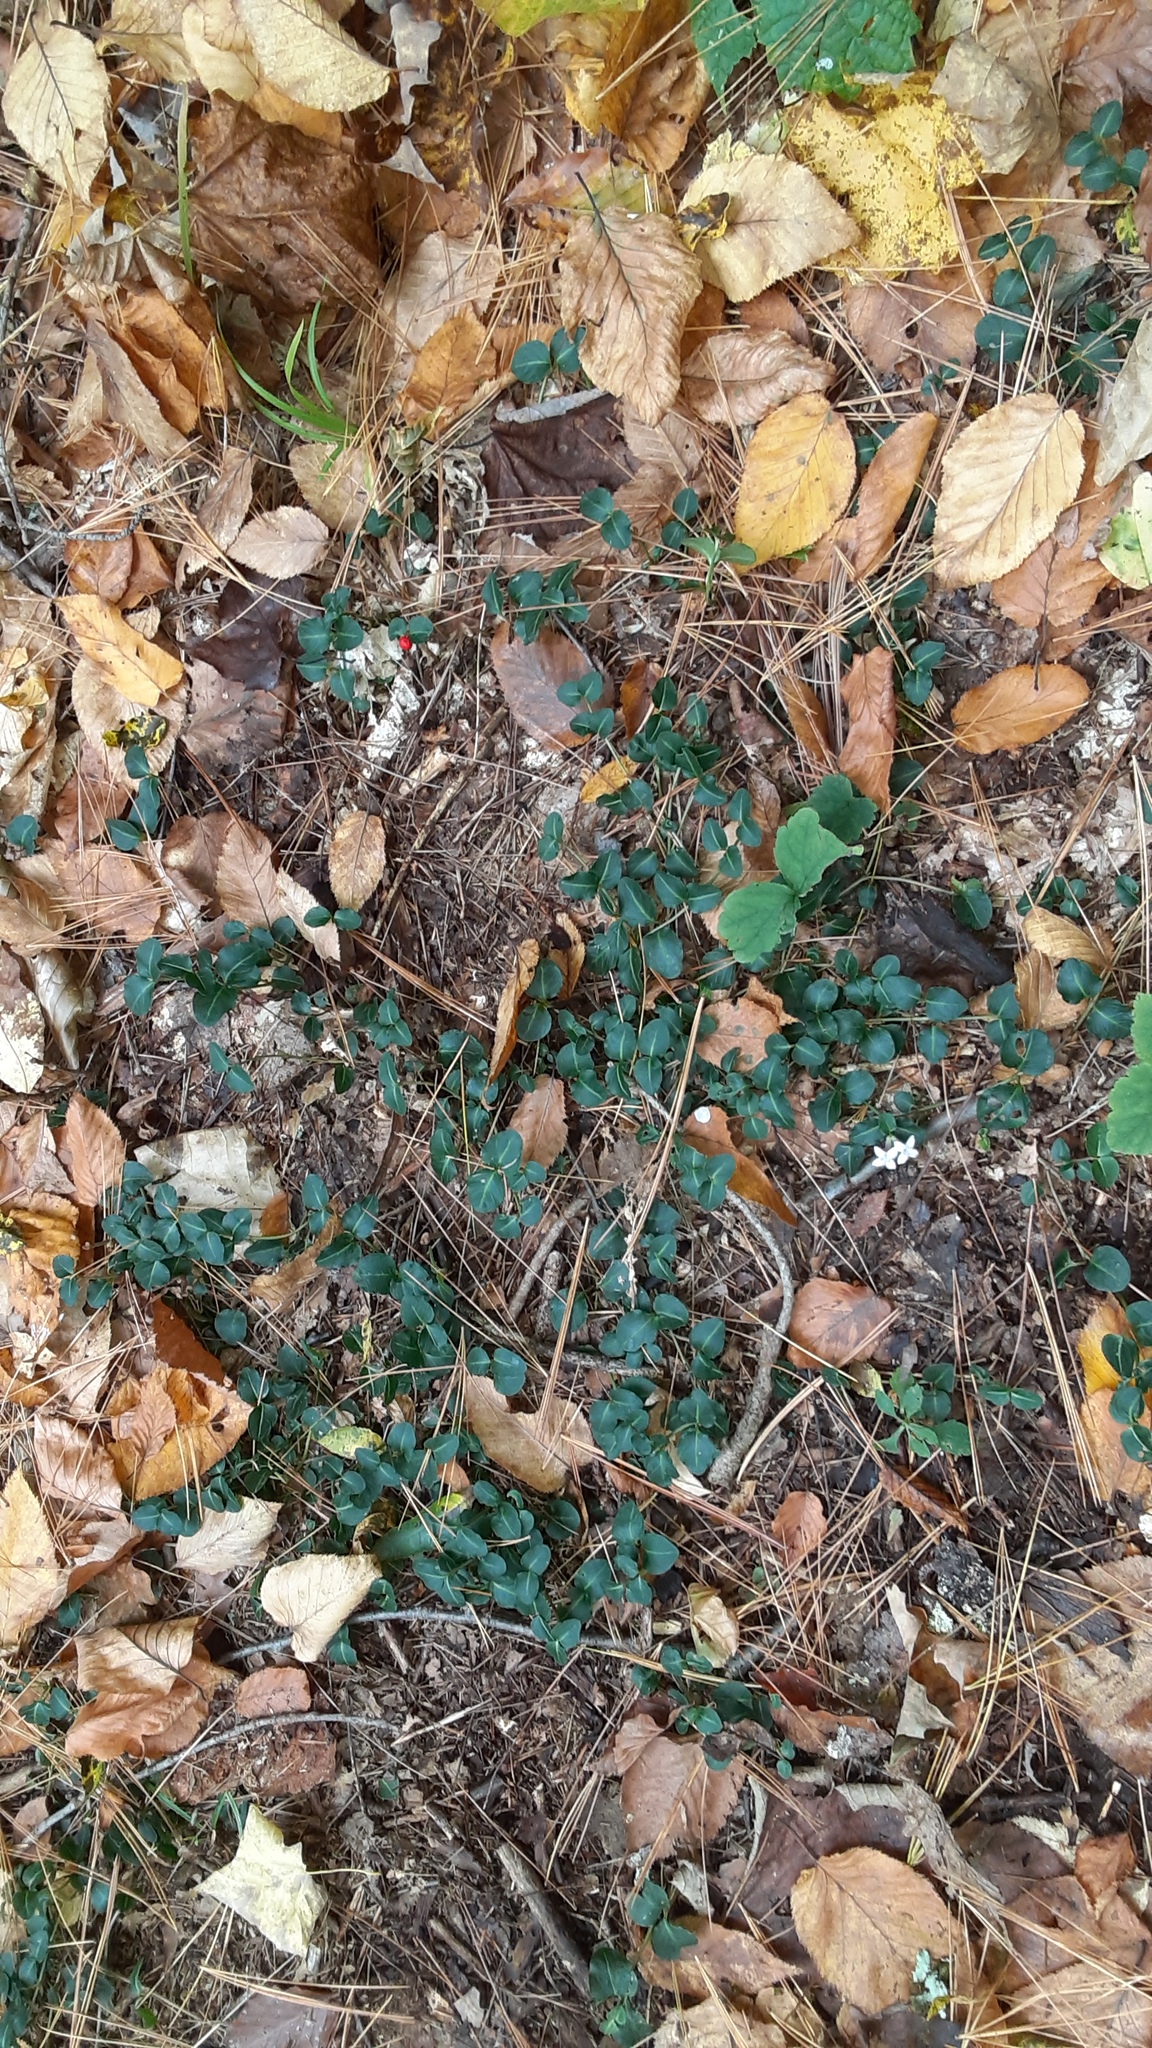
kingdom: Plantae
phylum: Tracheophyta
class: Magnoliopsida
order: Gentianales
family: Rubiaceae
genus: Mitchella
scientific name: Mitchella repens
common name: Partridge-berry
